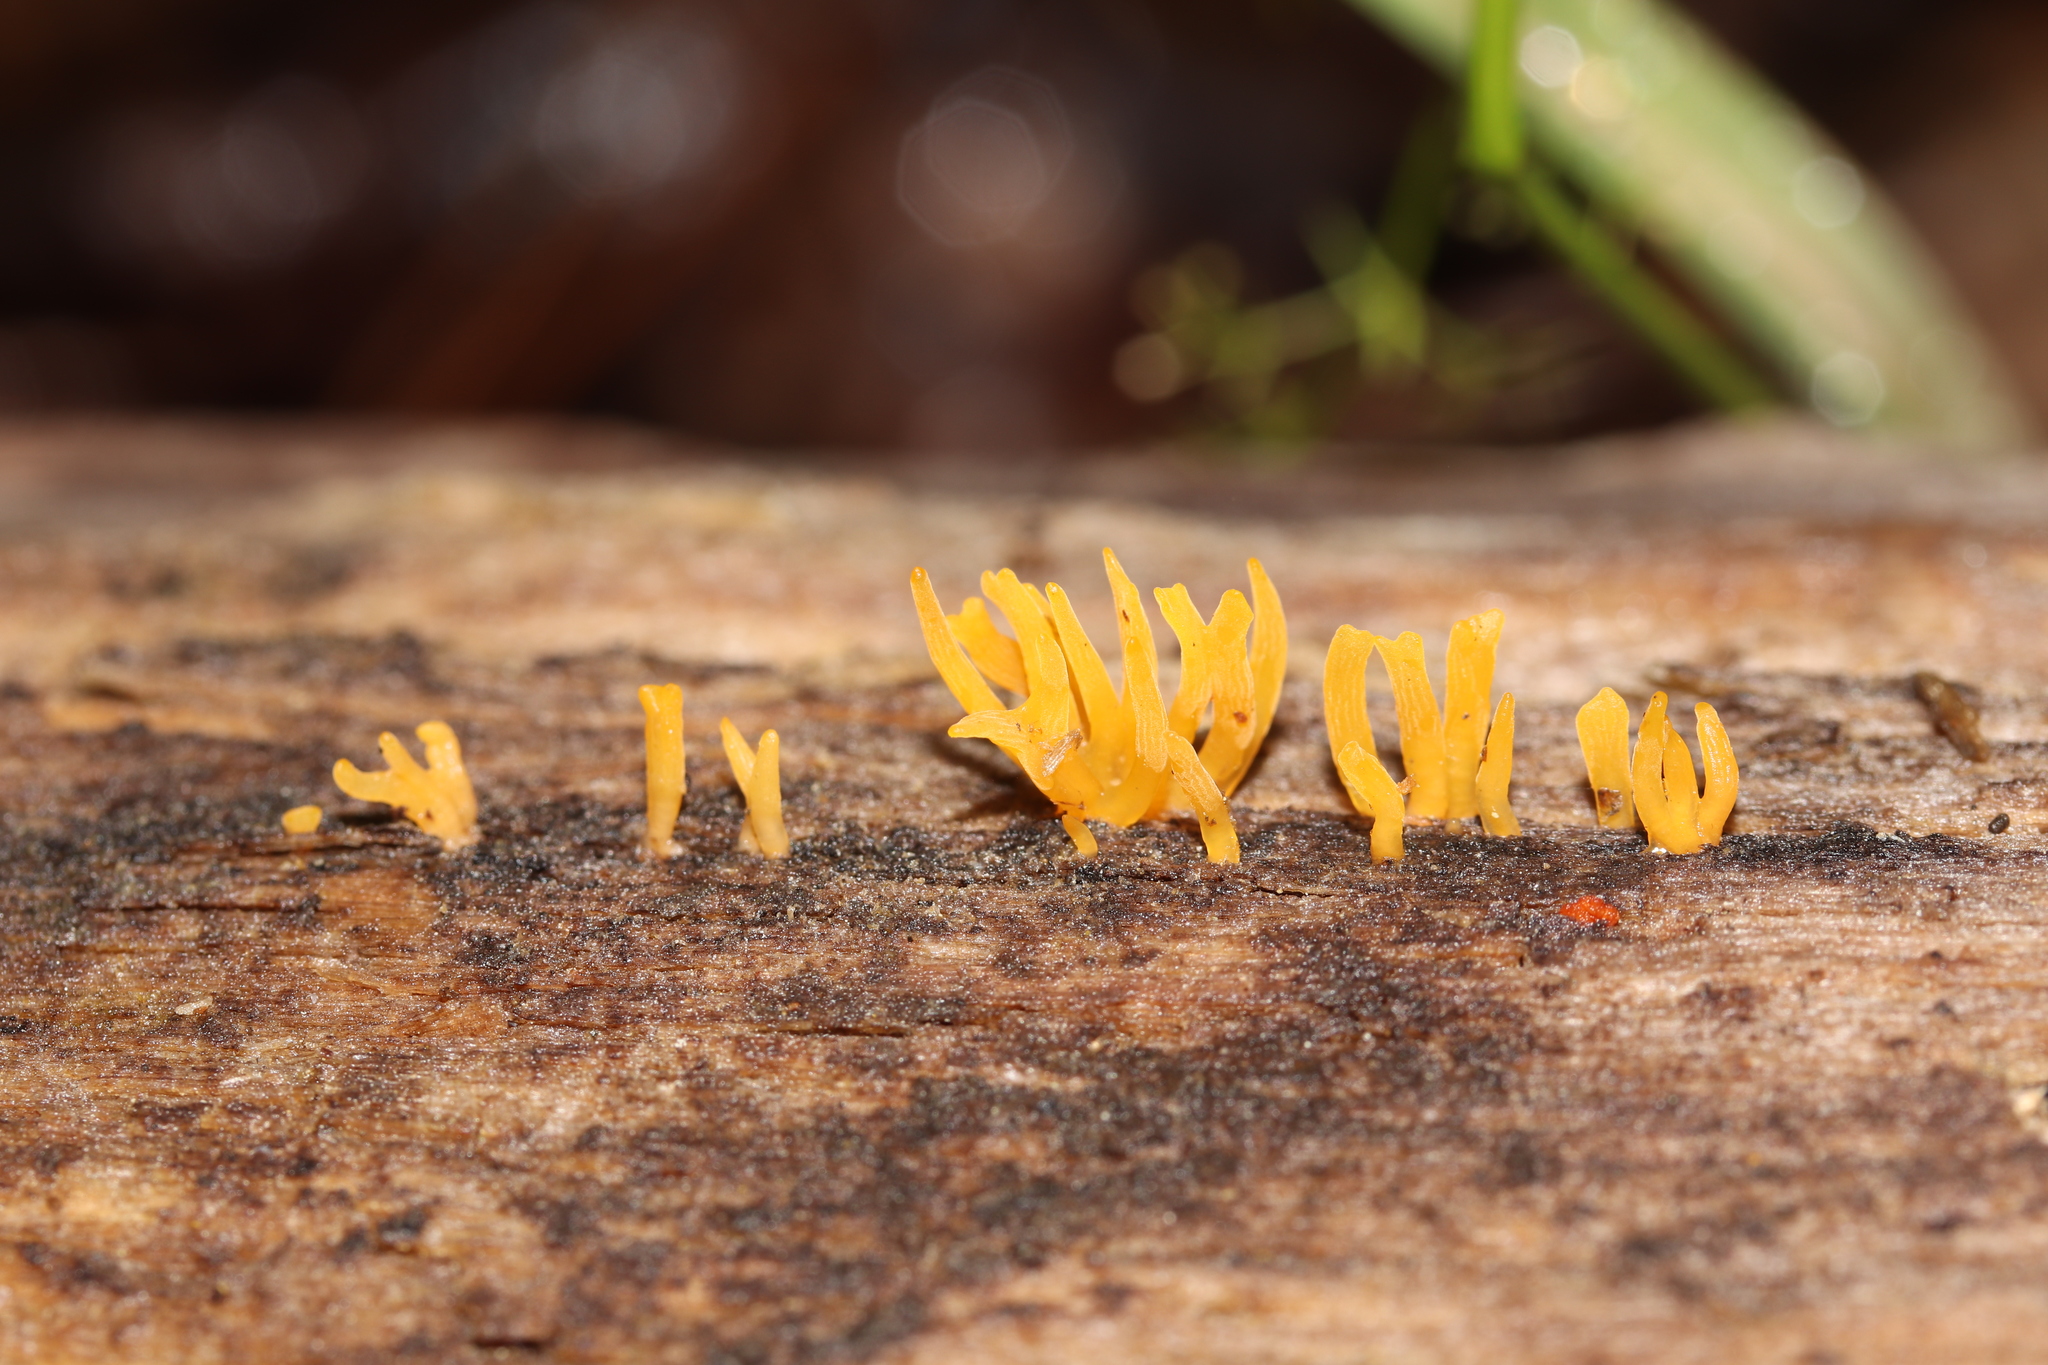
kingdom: Fungi
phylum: Basidiomycota
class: Dacrymycetes
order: Dacrymycetales
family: Dacrymycetaceae
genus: Calocera
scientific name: Calocera cornea
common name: Small stagshorn
